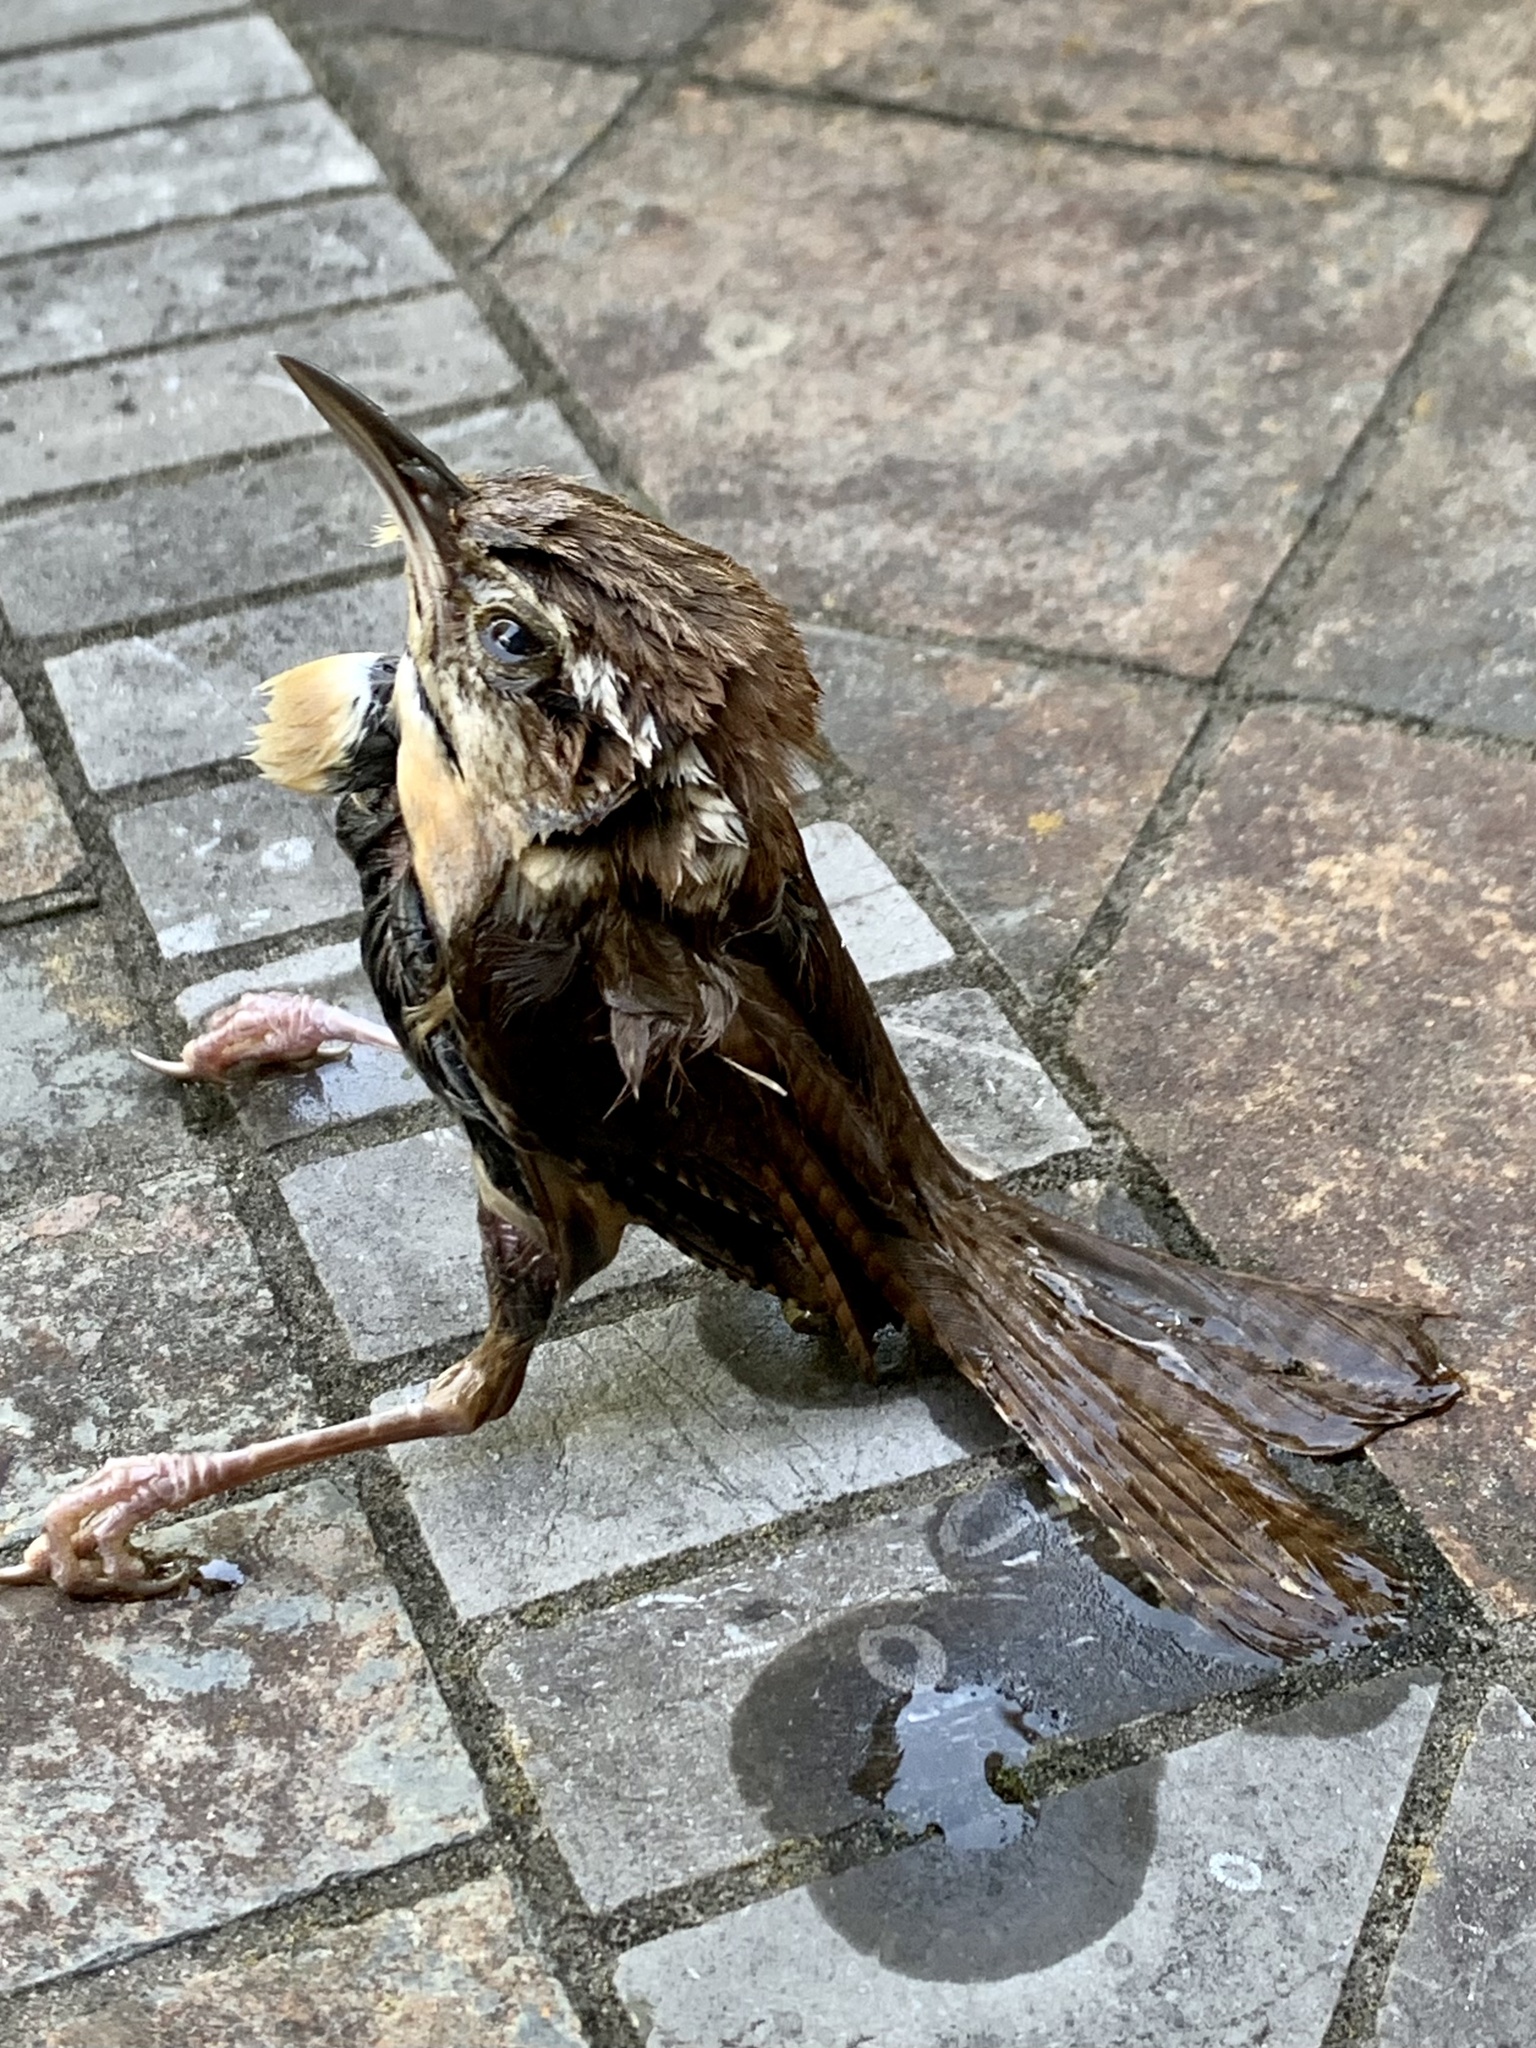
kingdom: Animalia
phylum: Chordata
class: Aves
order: Passeriformes
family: Troglodytidae
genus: Thryothorus
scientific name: Thryothorus ludovicianus
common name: Carolina wren
